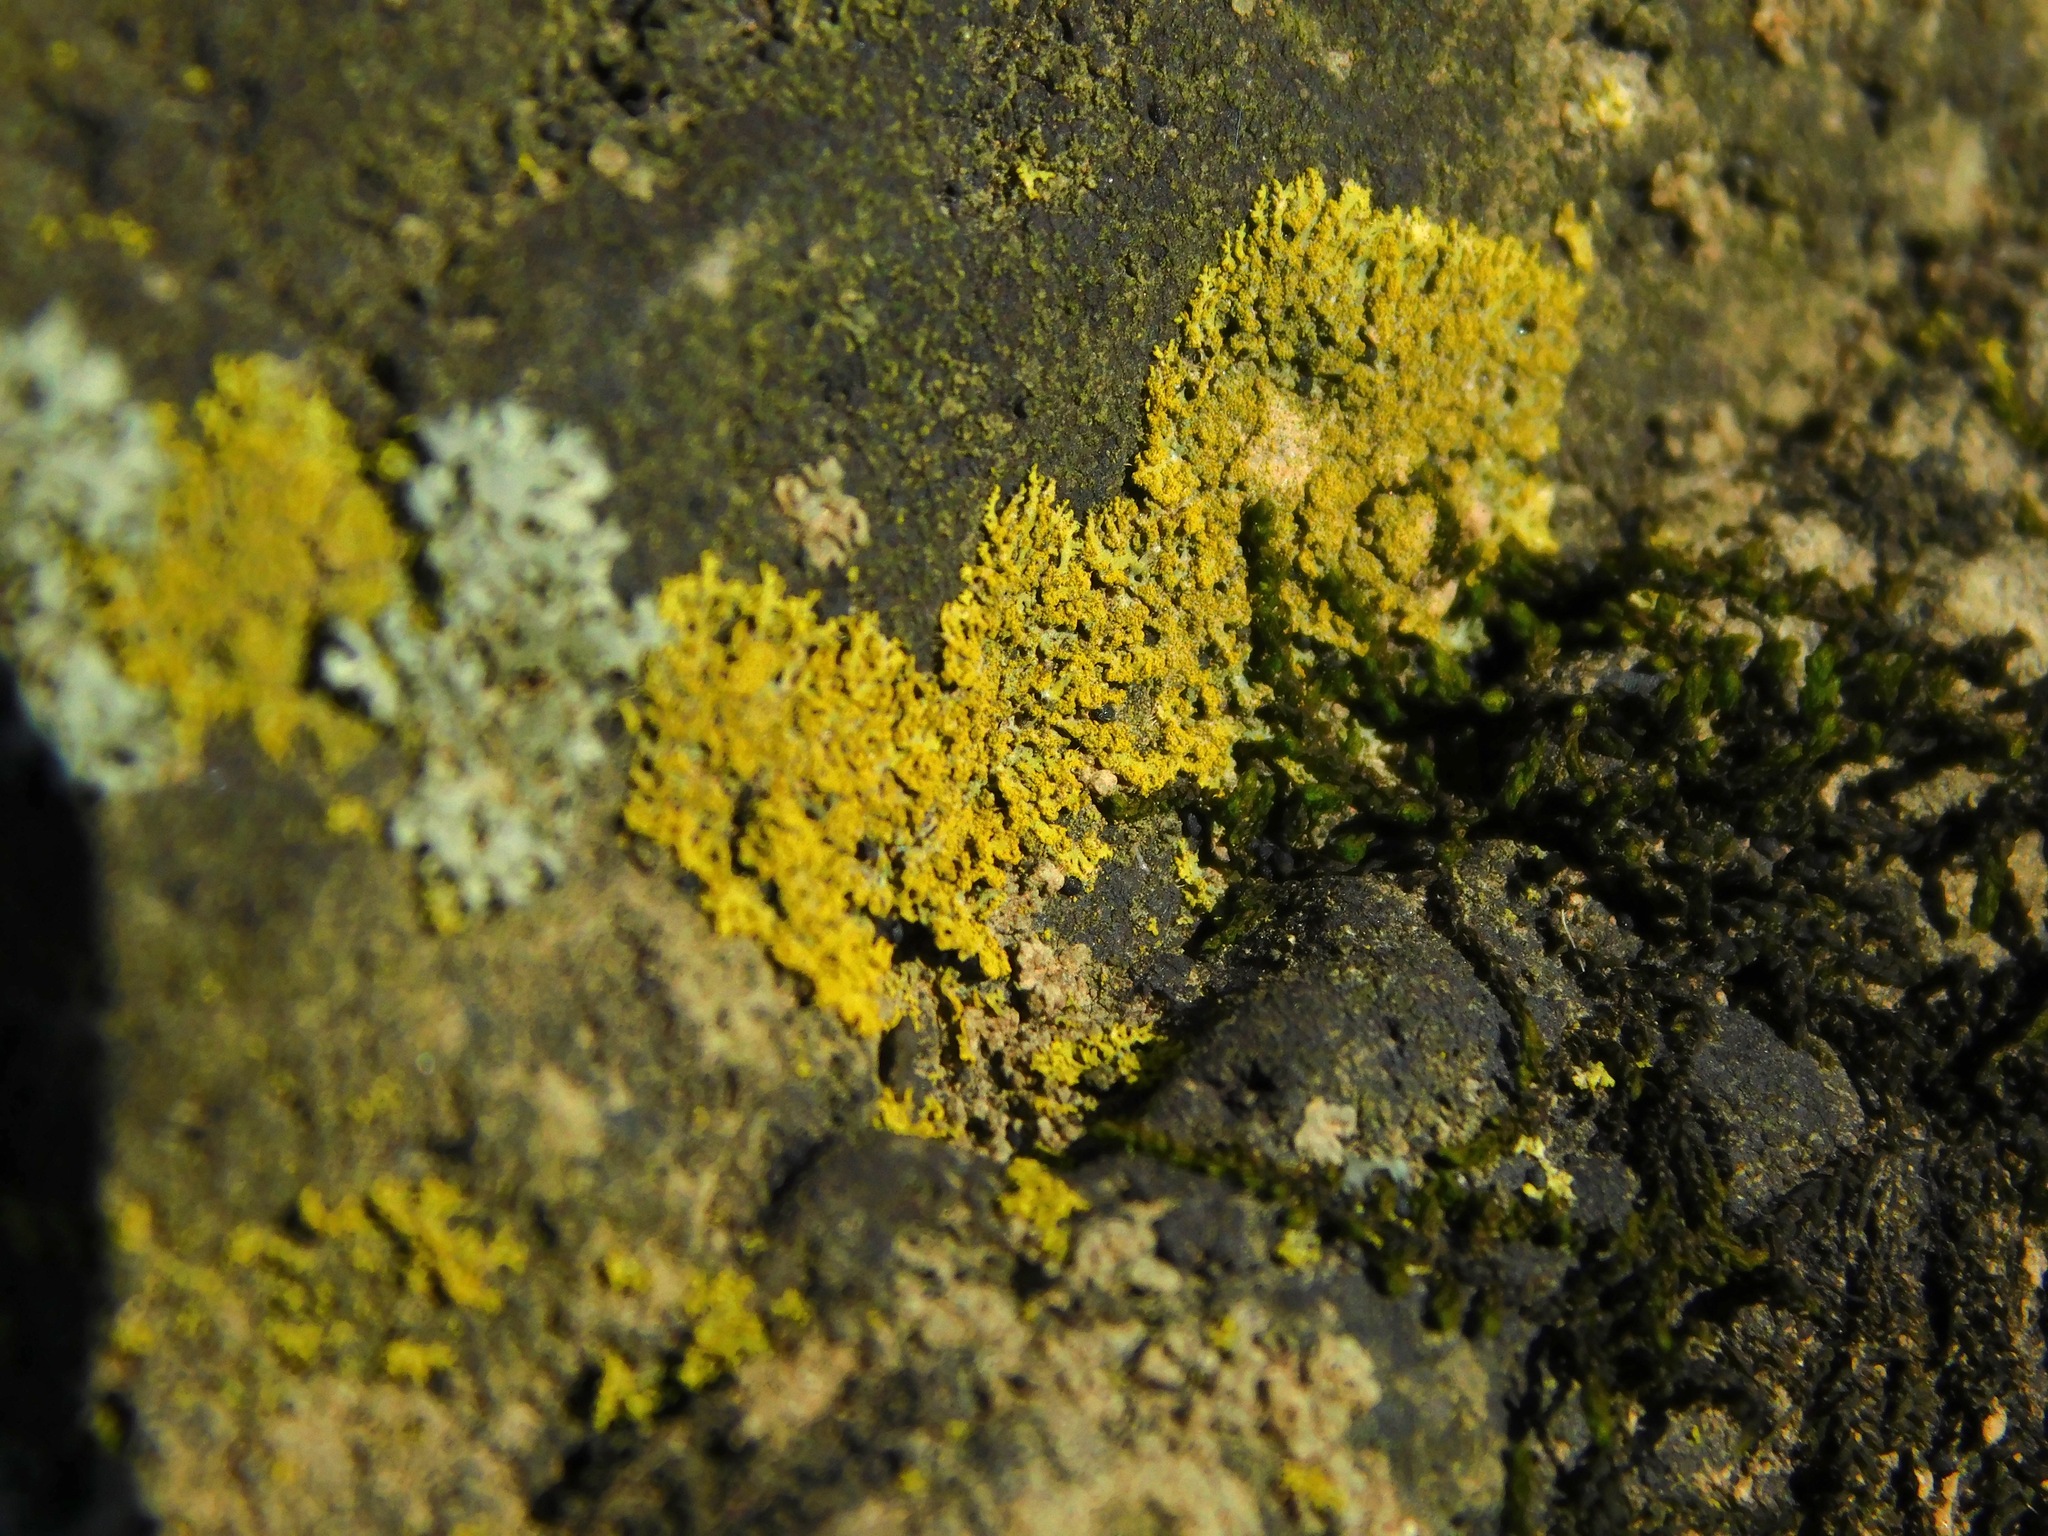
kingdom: Fungi
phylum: Ascomycota
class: Candelariomycetes
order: Candelariales
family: Candelariaceae
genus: Candelaria
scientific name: Candelaria concolor
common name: Candleflame lichen
